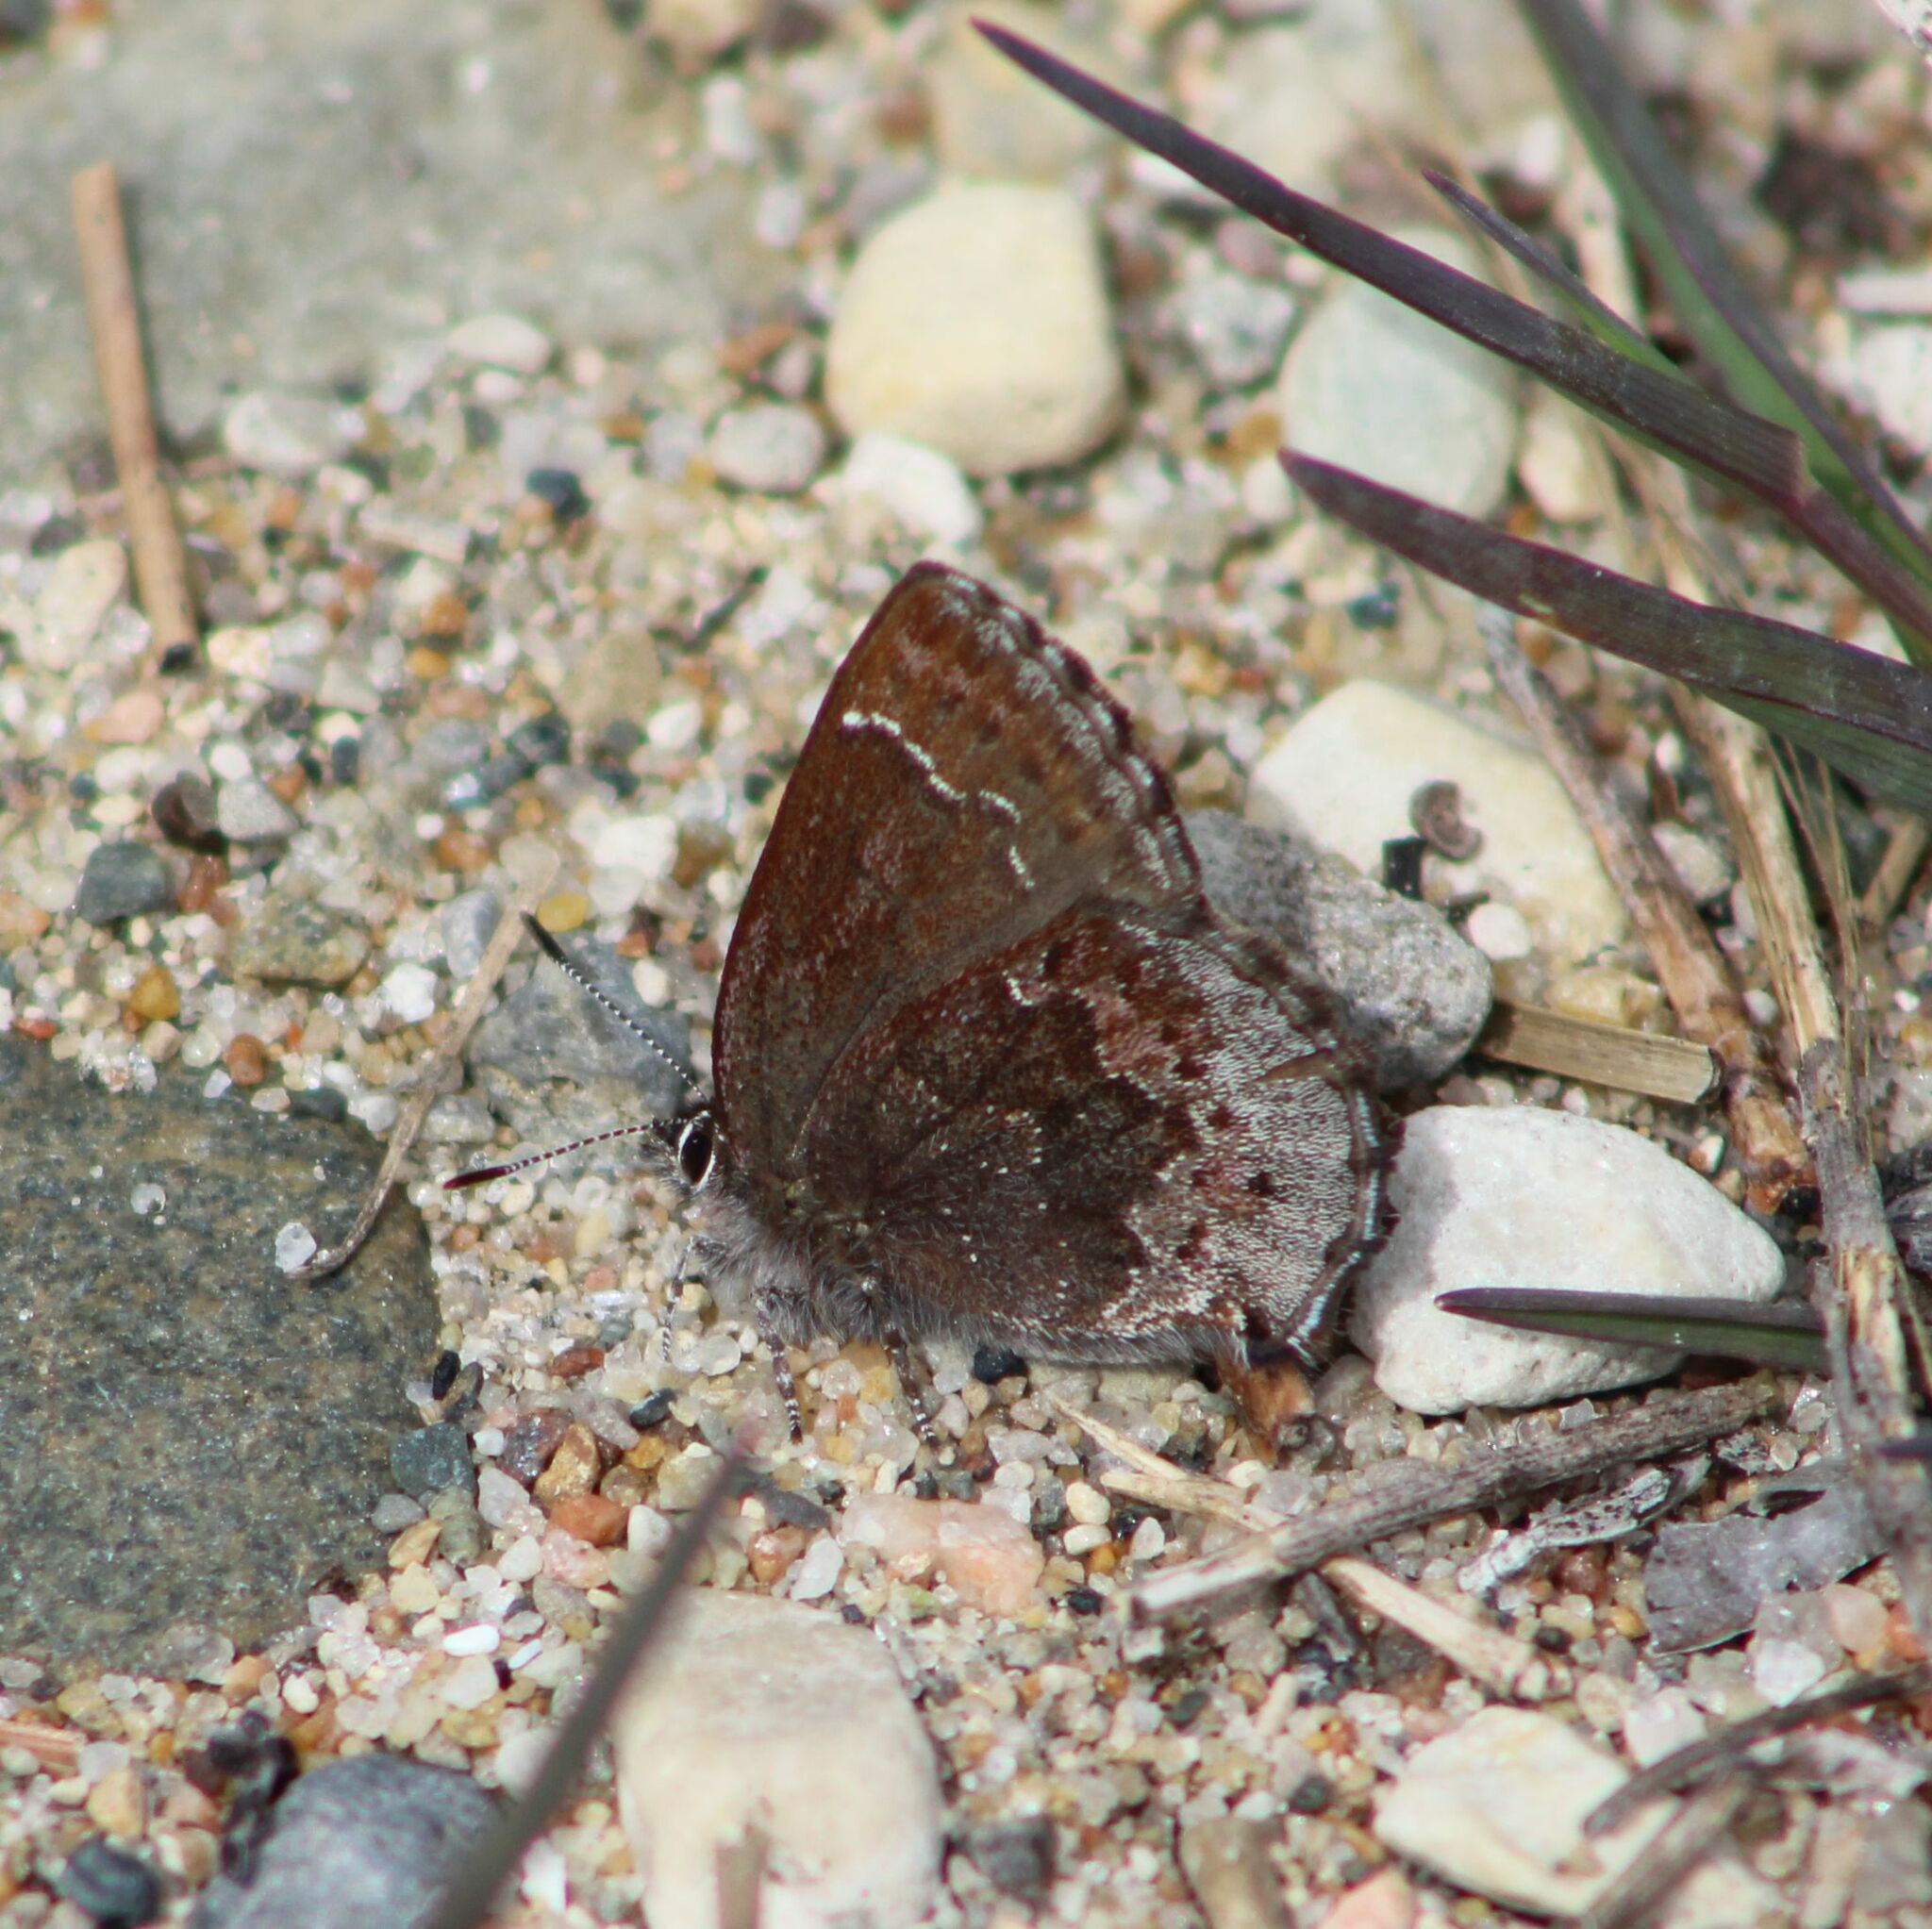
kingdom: Animalia
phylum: Arthropoda
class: Insecta
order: Lepidoptera
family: Lycaenidae
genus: Callophrys
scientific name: Callophrys polios
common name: Hoary elfin
